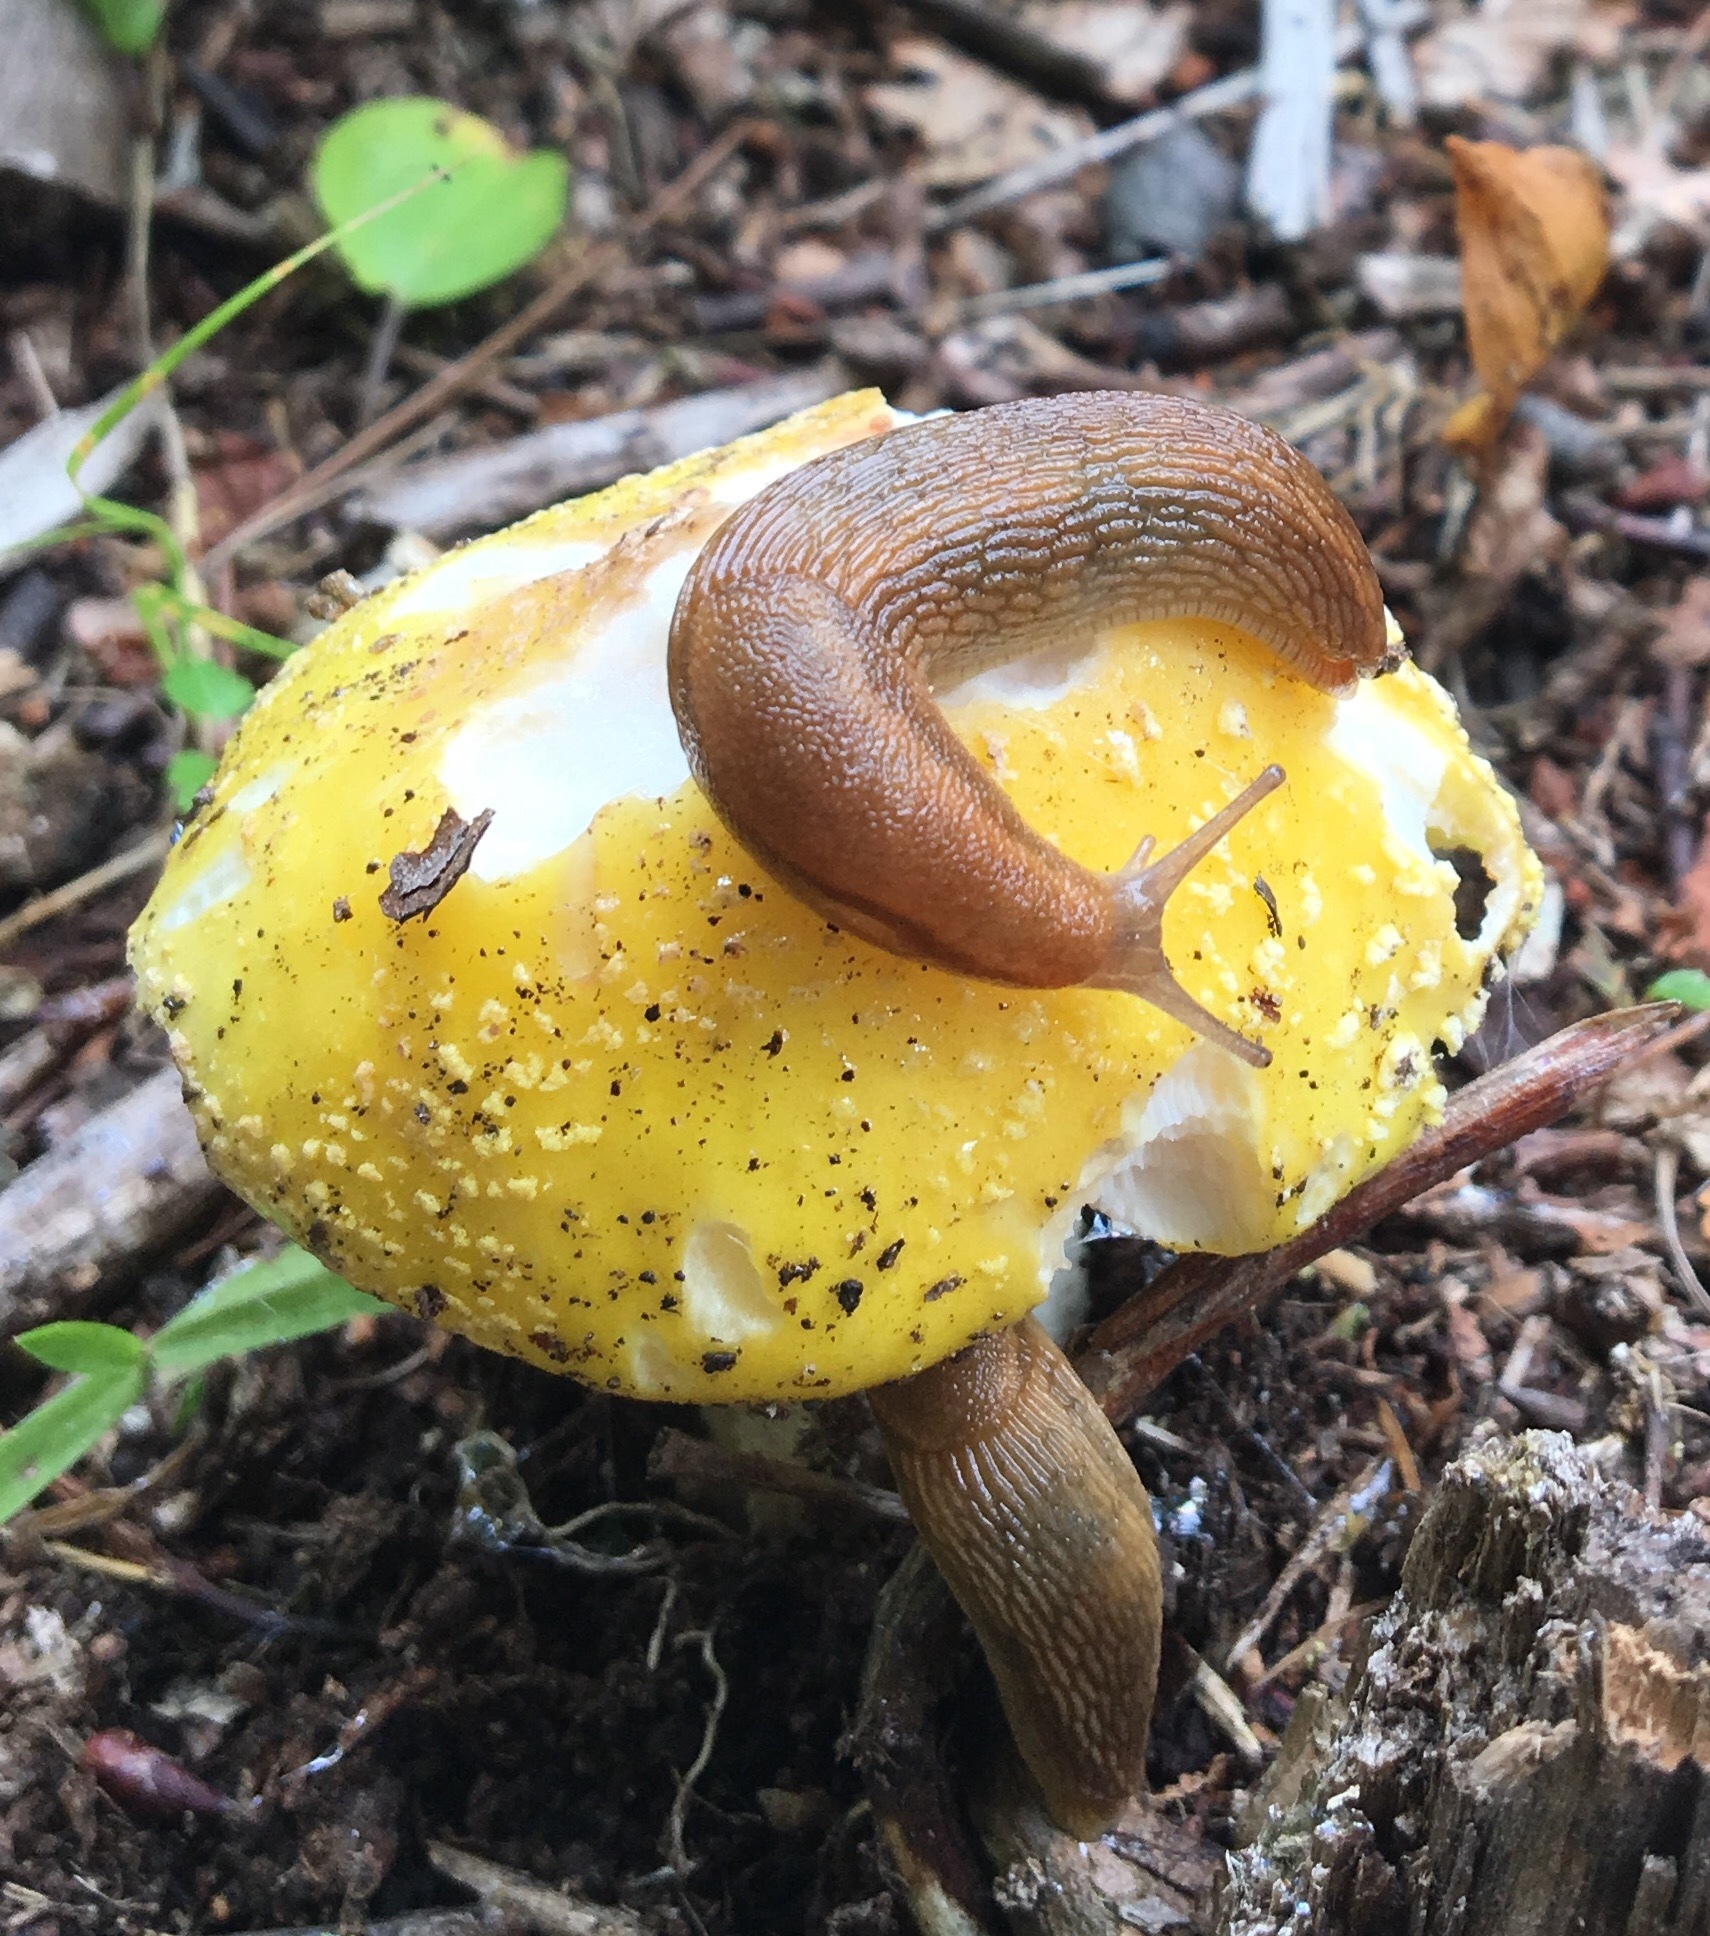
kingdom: Fungi
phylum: Basidiomycota
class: Agaricomycetes
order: Agaricales
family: Amanitaceae
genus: Amanita
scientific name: Amanita muscaria
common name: Fly agaric
